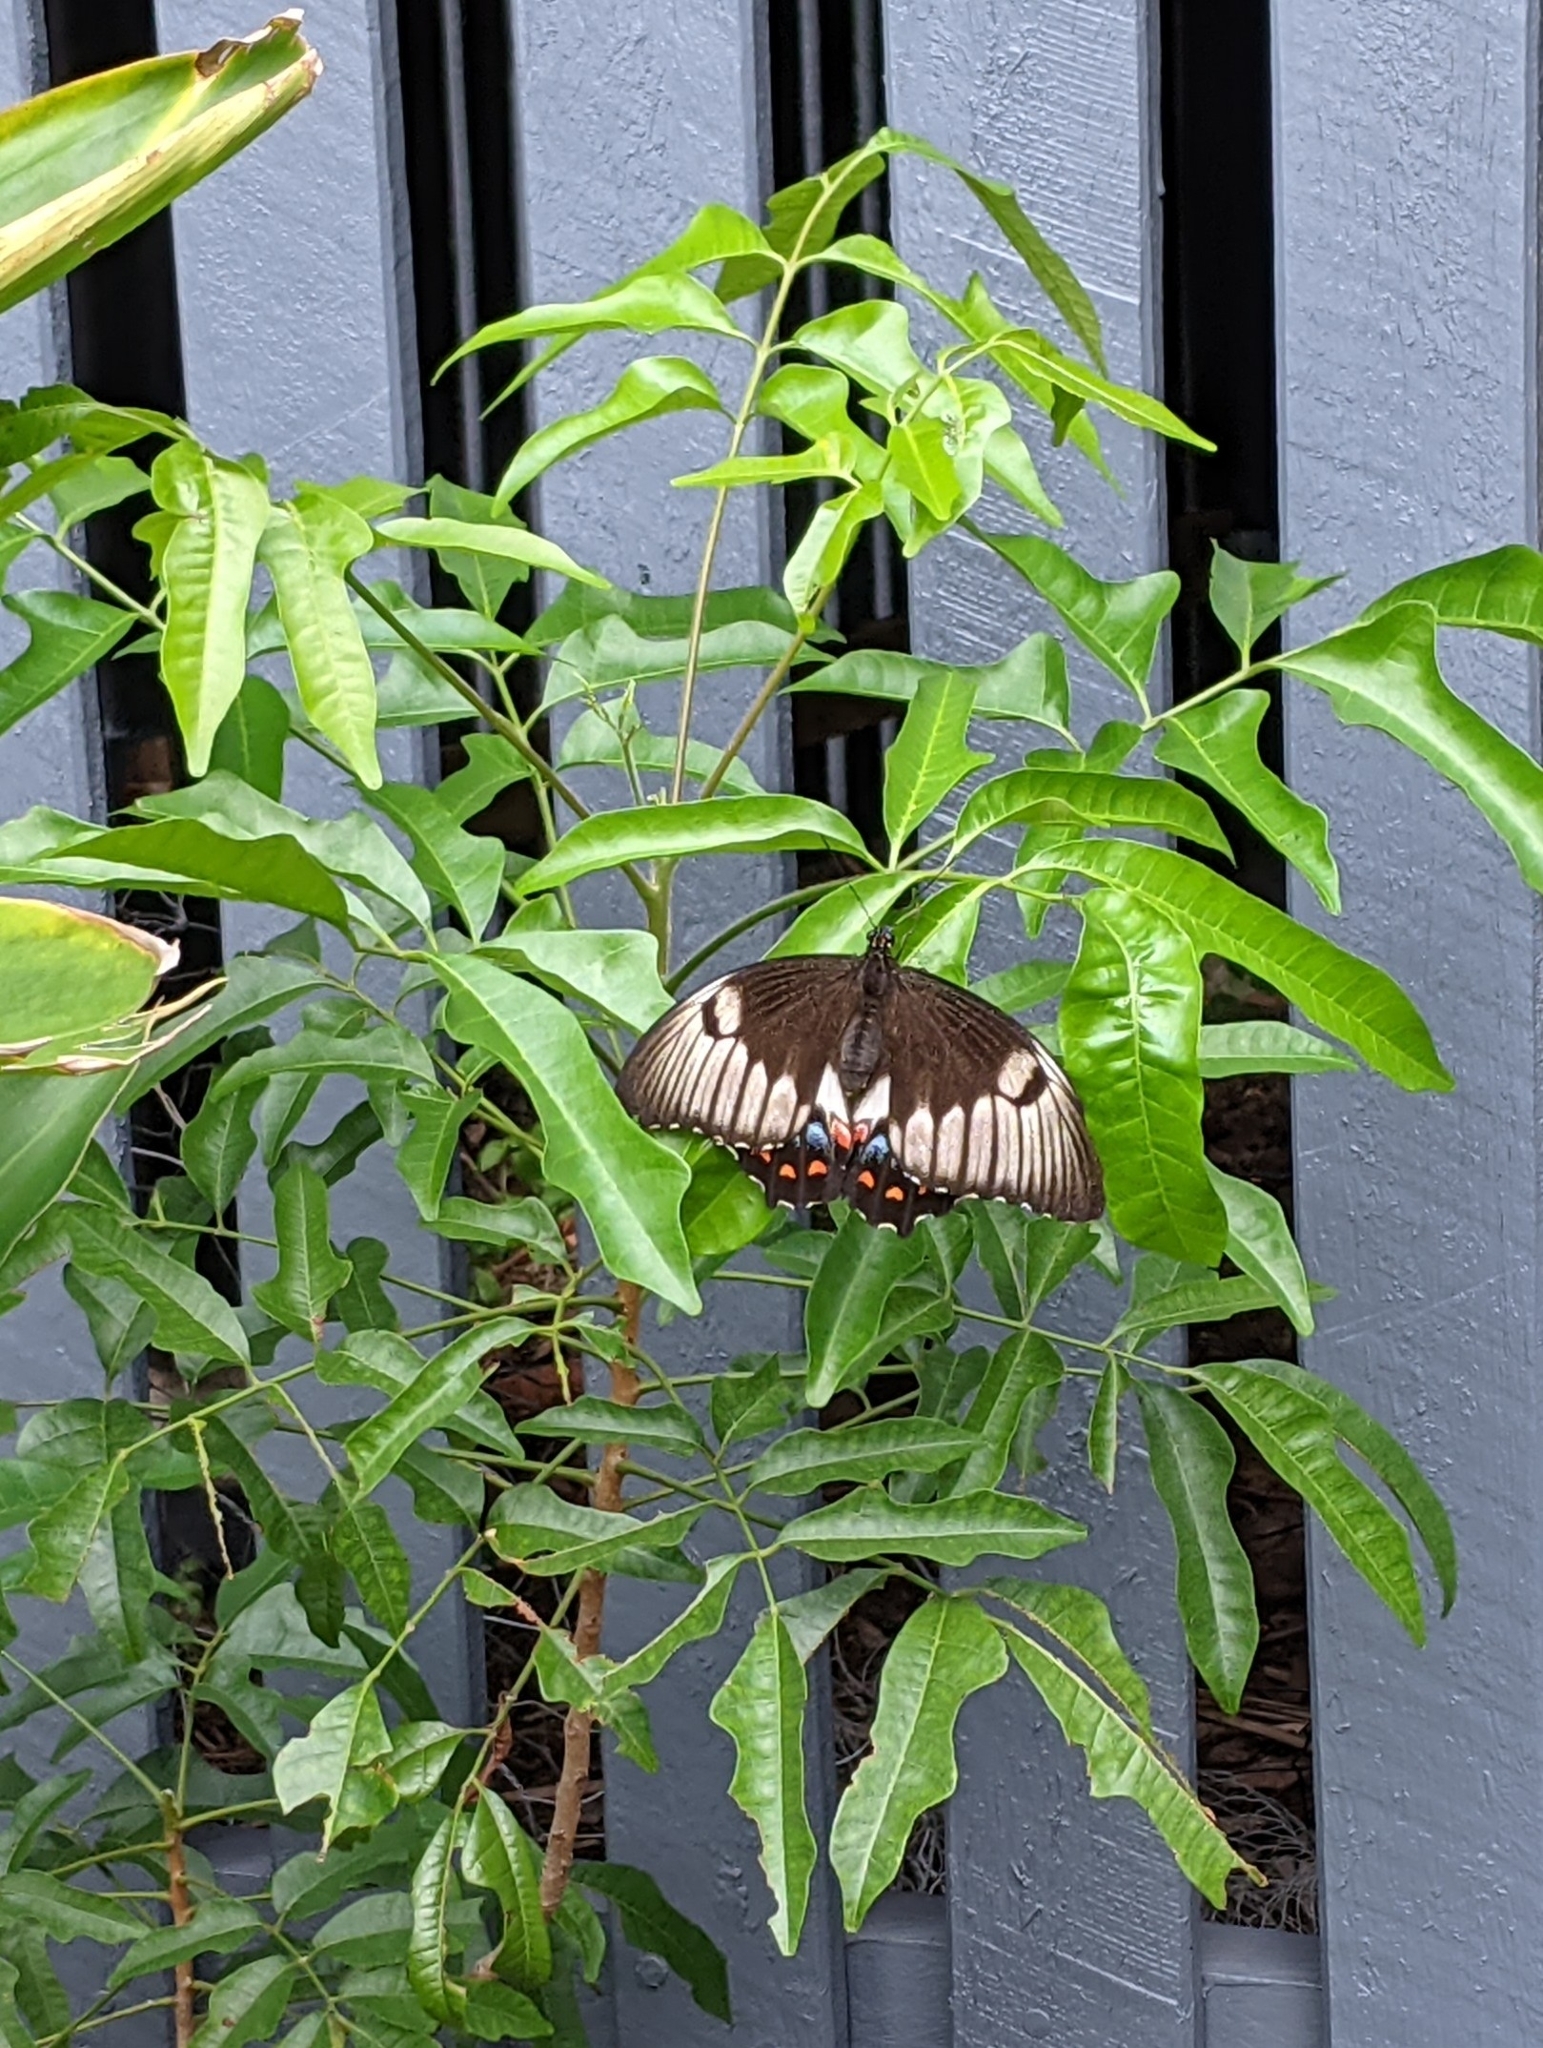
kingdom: Animalia
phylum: Arthropoda
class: Insecta
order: Lepidoptera
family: Papilionidae
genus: Papilio
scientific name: Papilio aegeus
